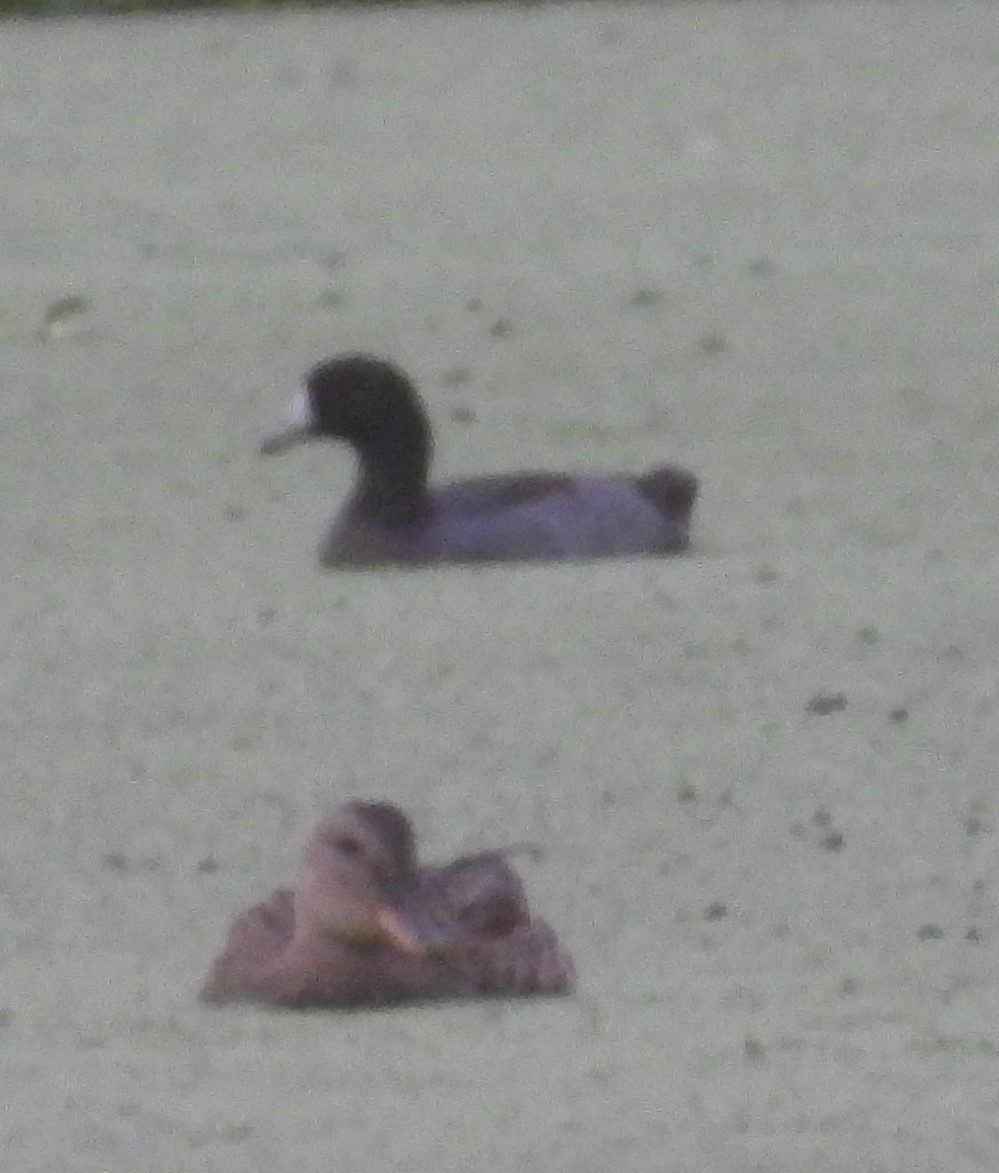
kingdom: Animalia
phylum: Chordata
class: Aves
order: Gruiformes
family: Rallidae
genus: Fulica
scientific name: Fulica americana
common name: American coot
